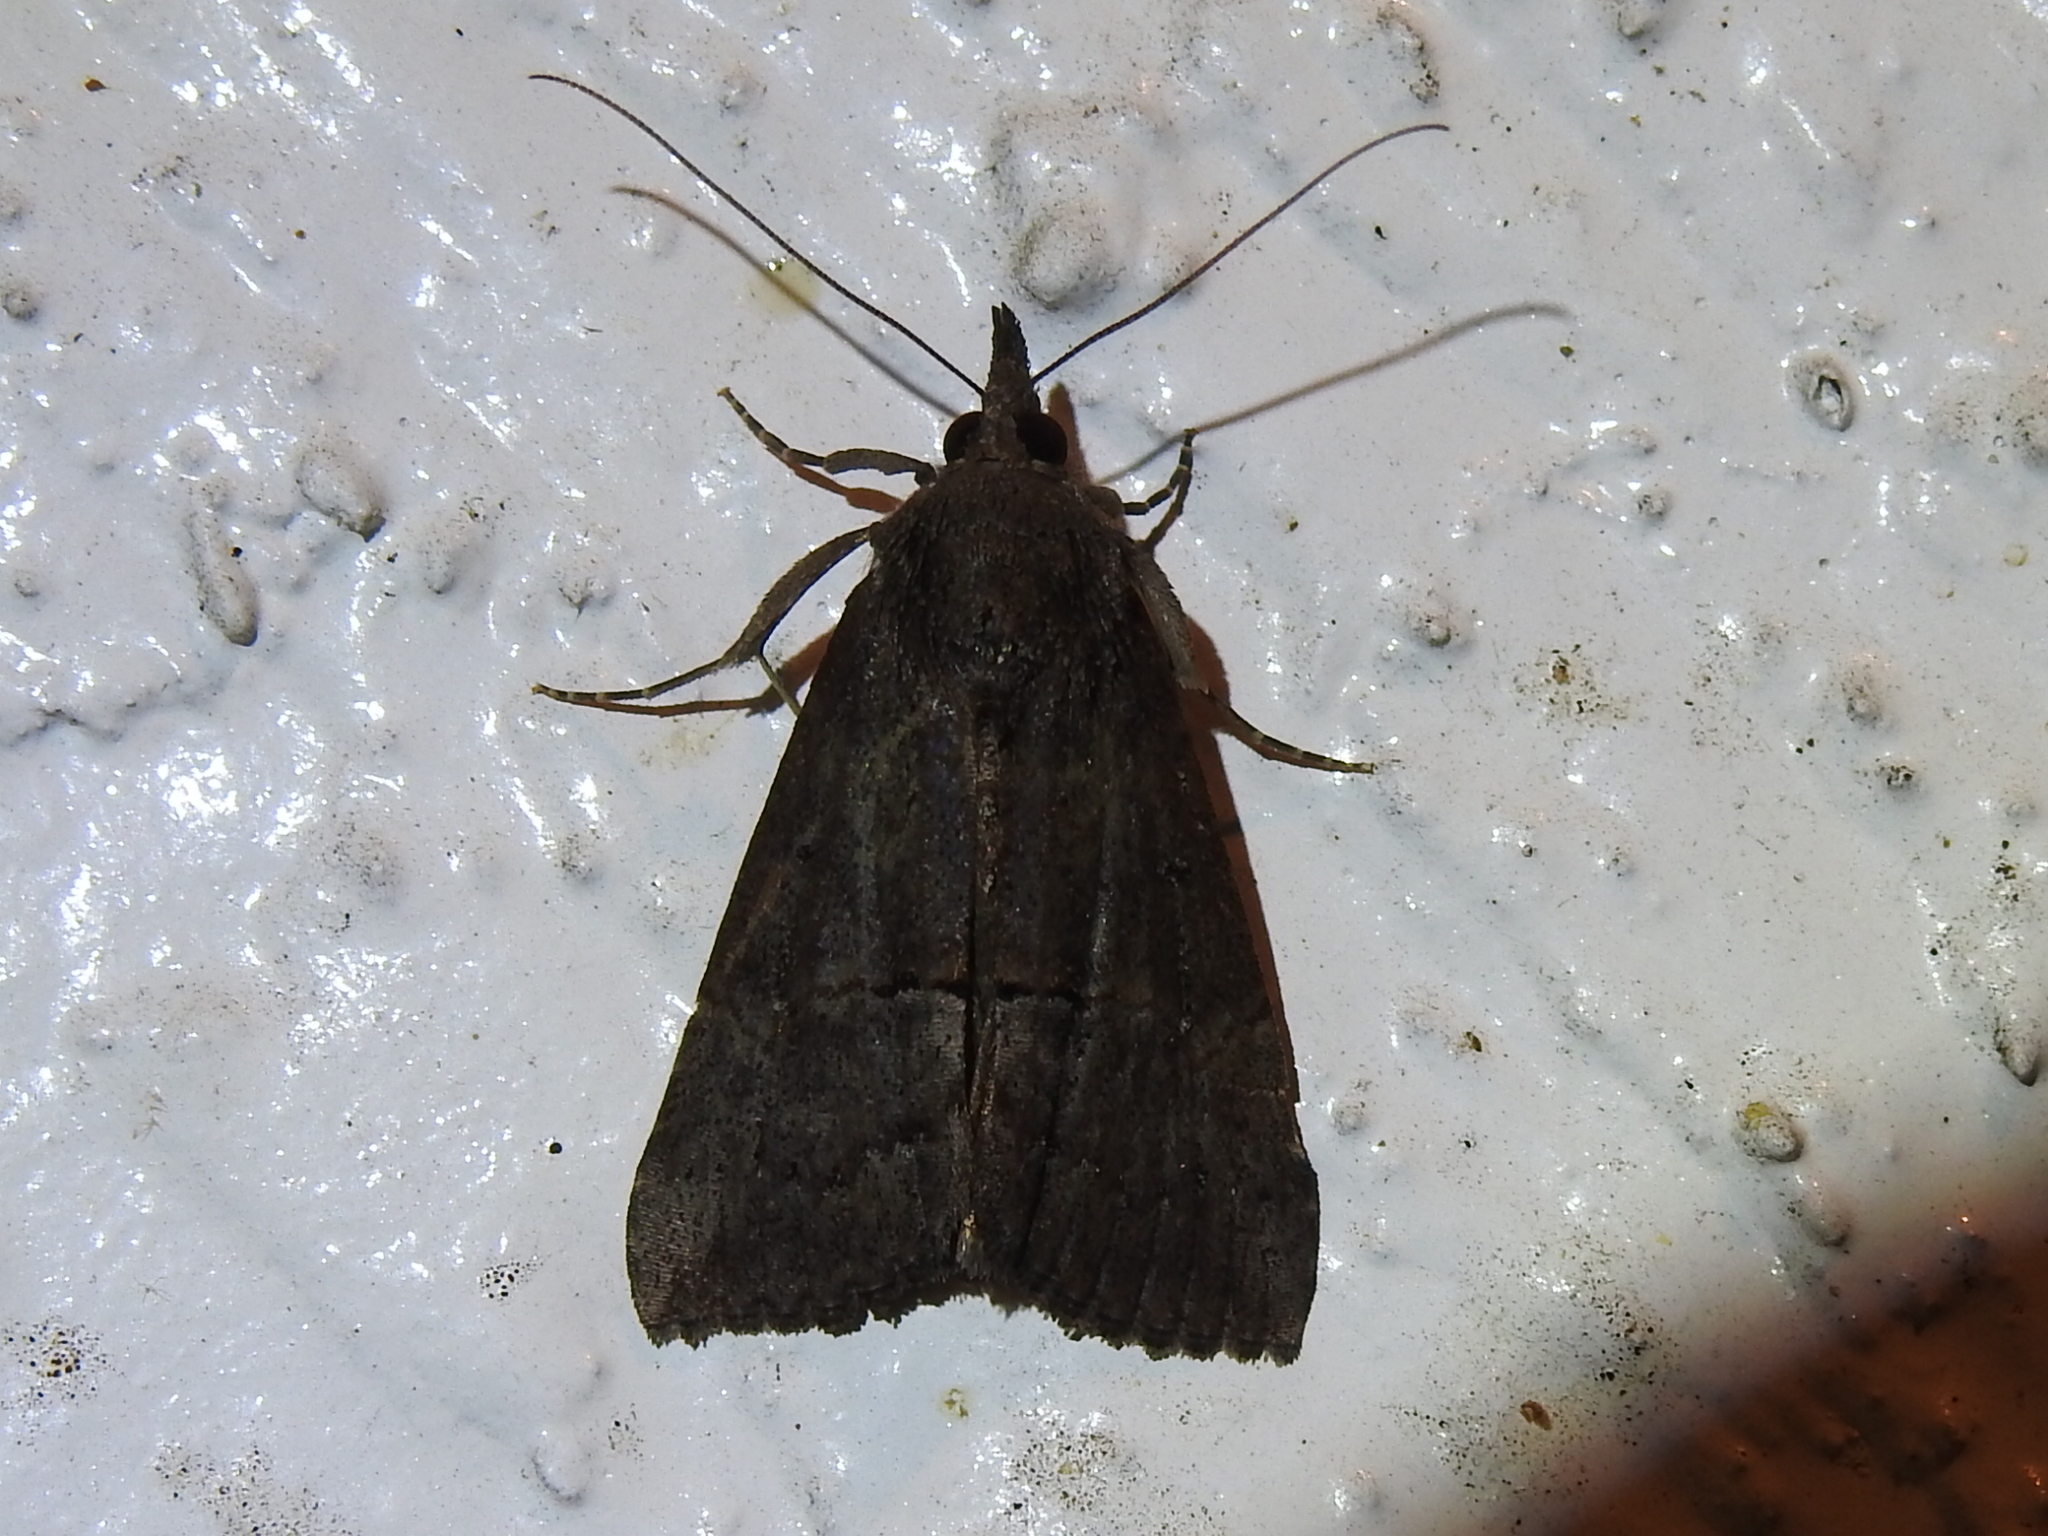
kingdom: Animalia
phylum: Arthropoda
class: Insecta
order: Lepidoptera
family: Erebidae
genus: Hypena
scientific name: Hypena scabra
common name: Green cloverworm
